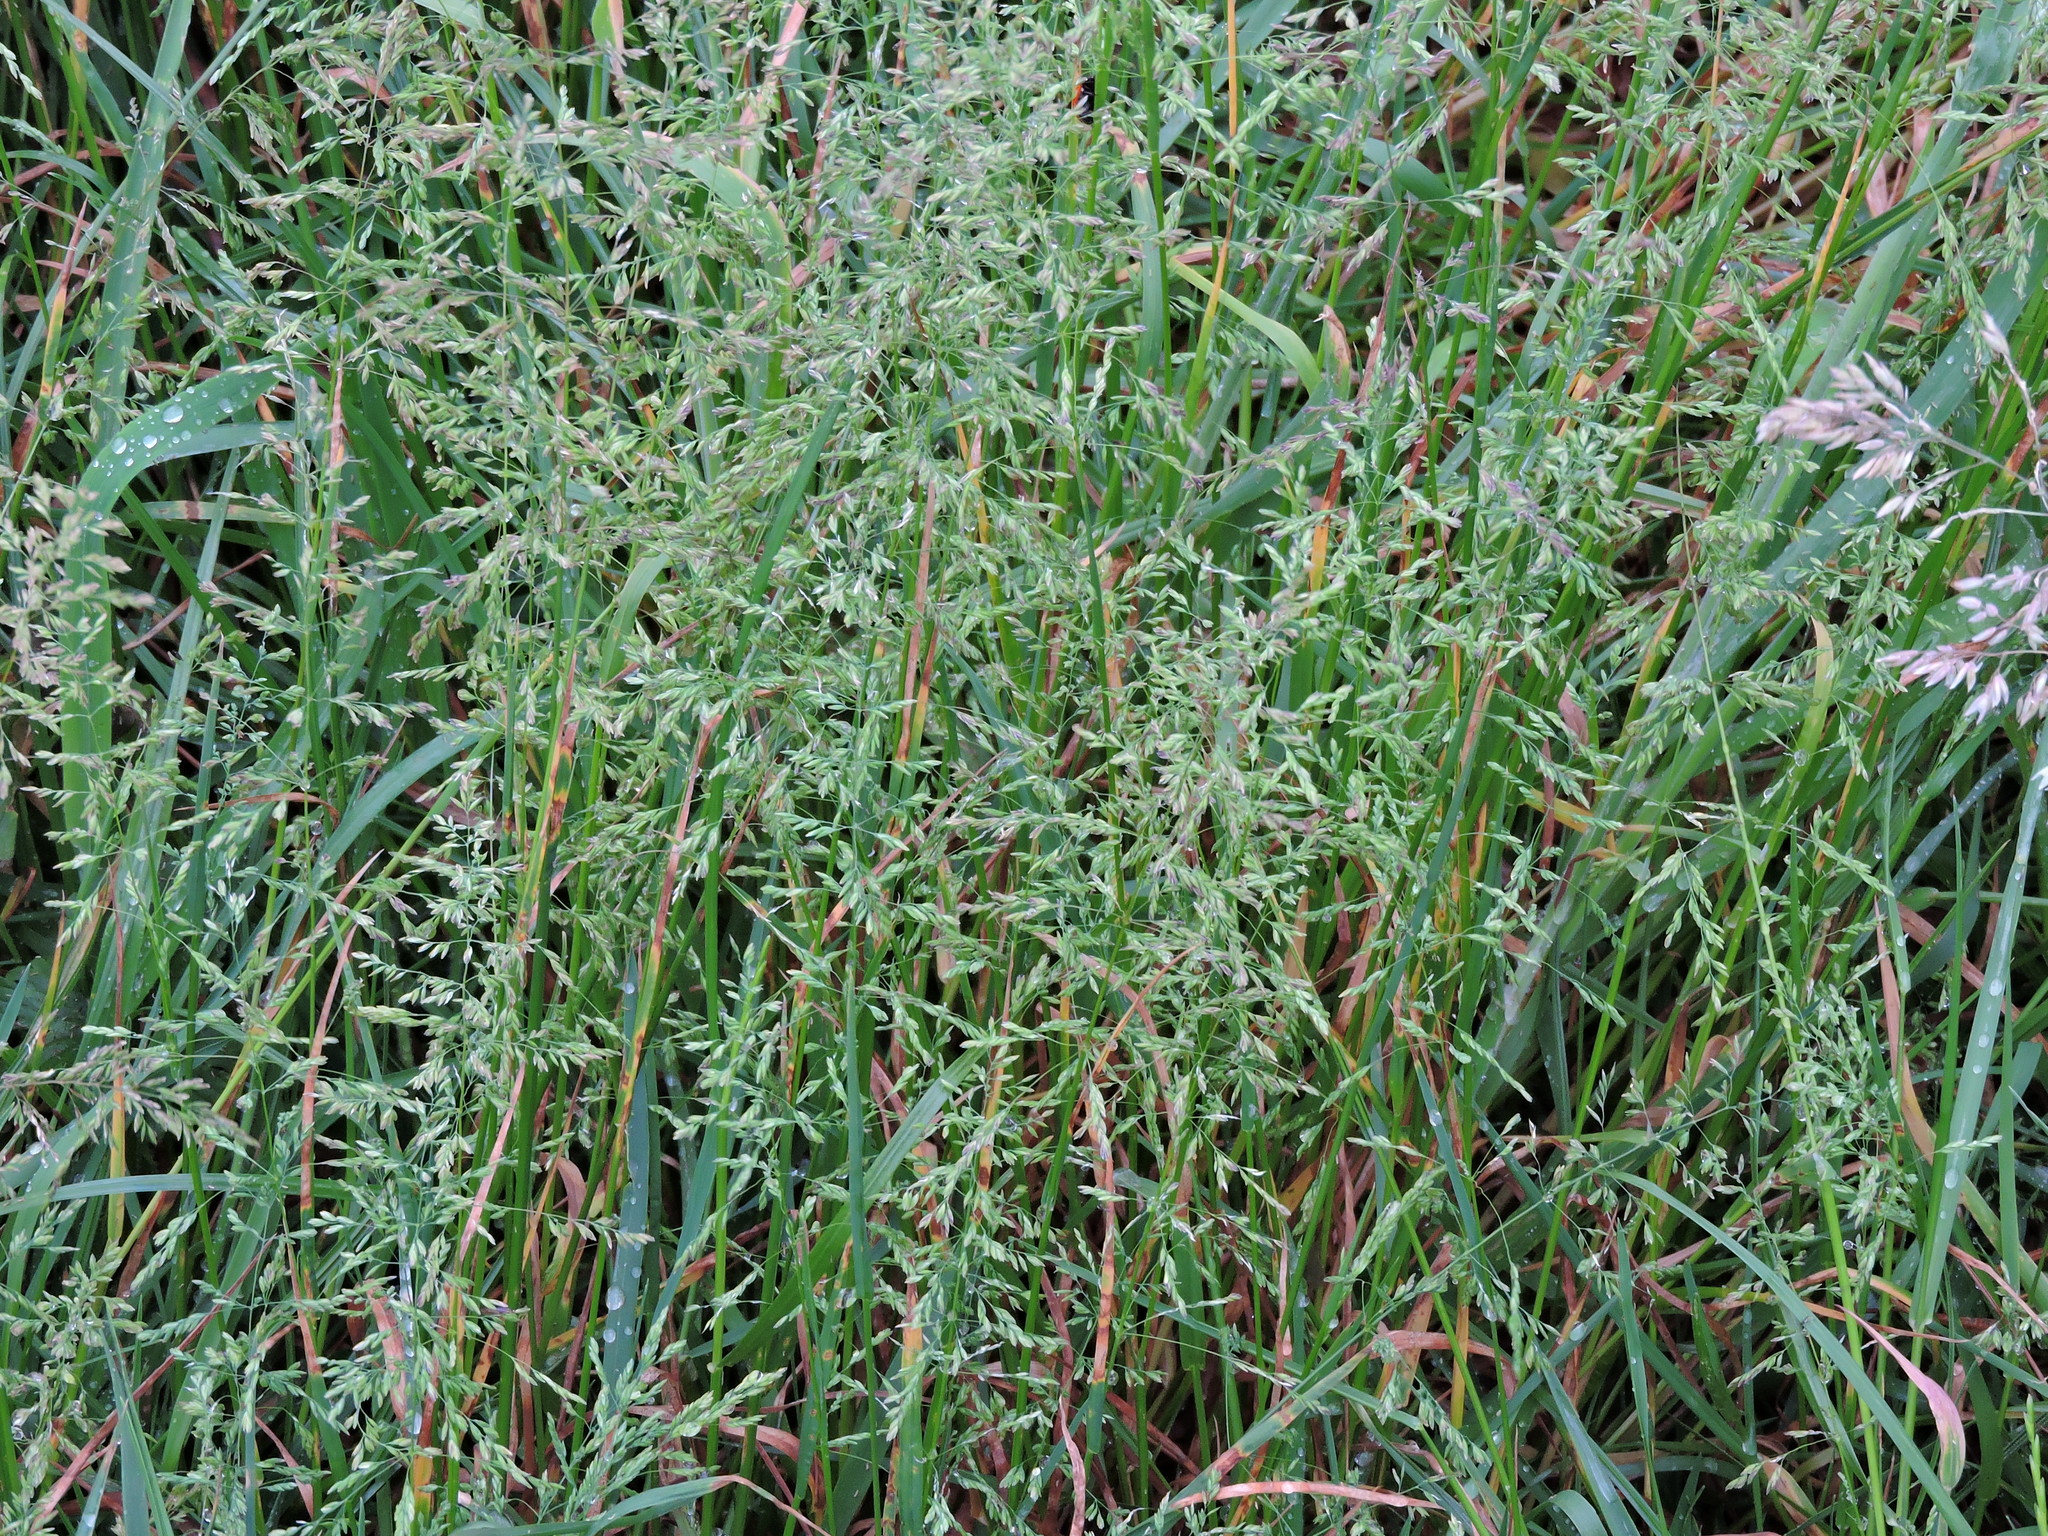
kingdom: Plantae
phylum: Tracheophyta
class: Liliopsida
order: Poales
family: Poaceae
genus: Poa
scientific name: Poa pratensis
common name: Kentucky bluegrass
